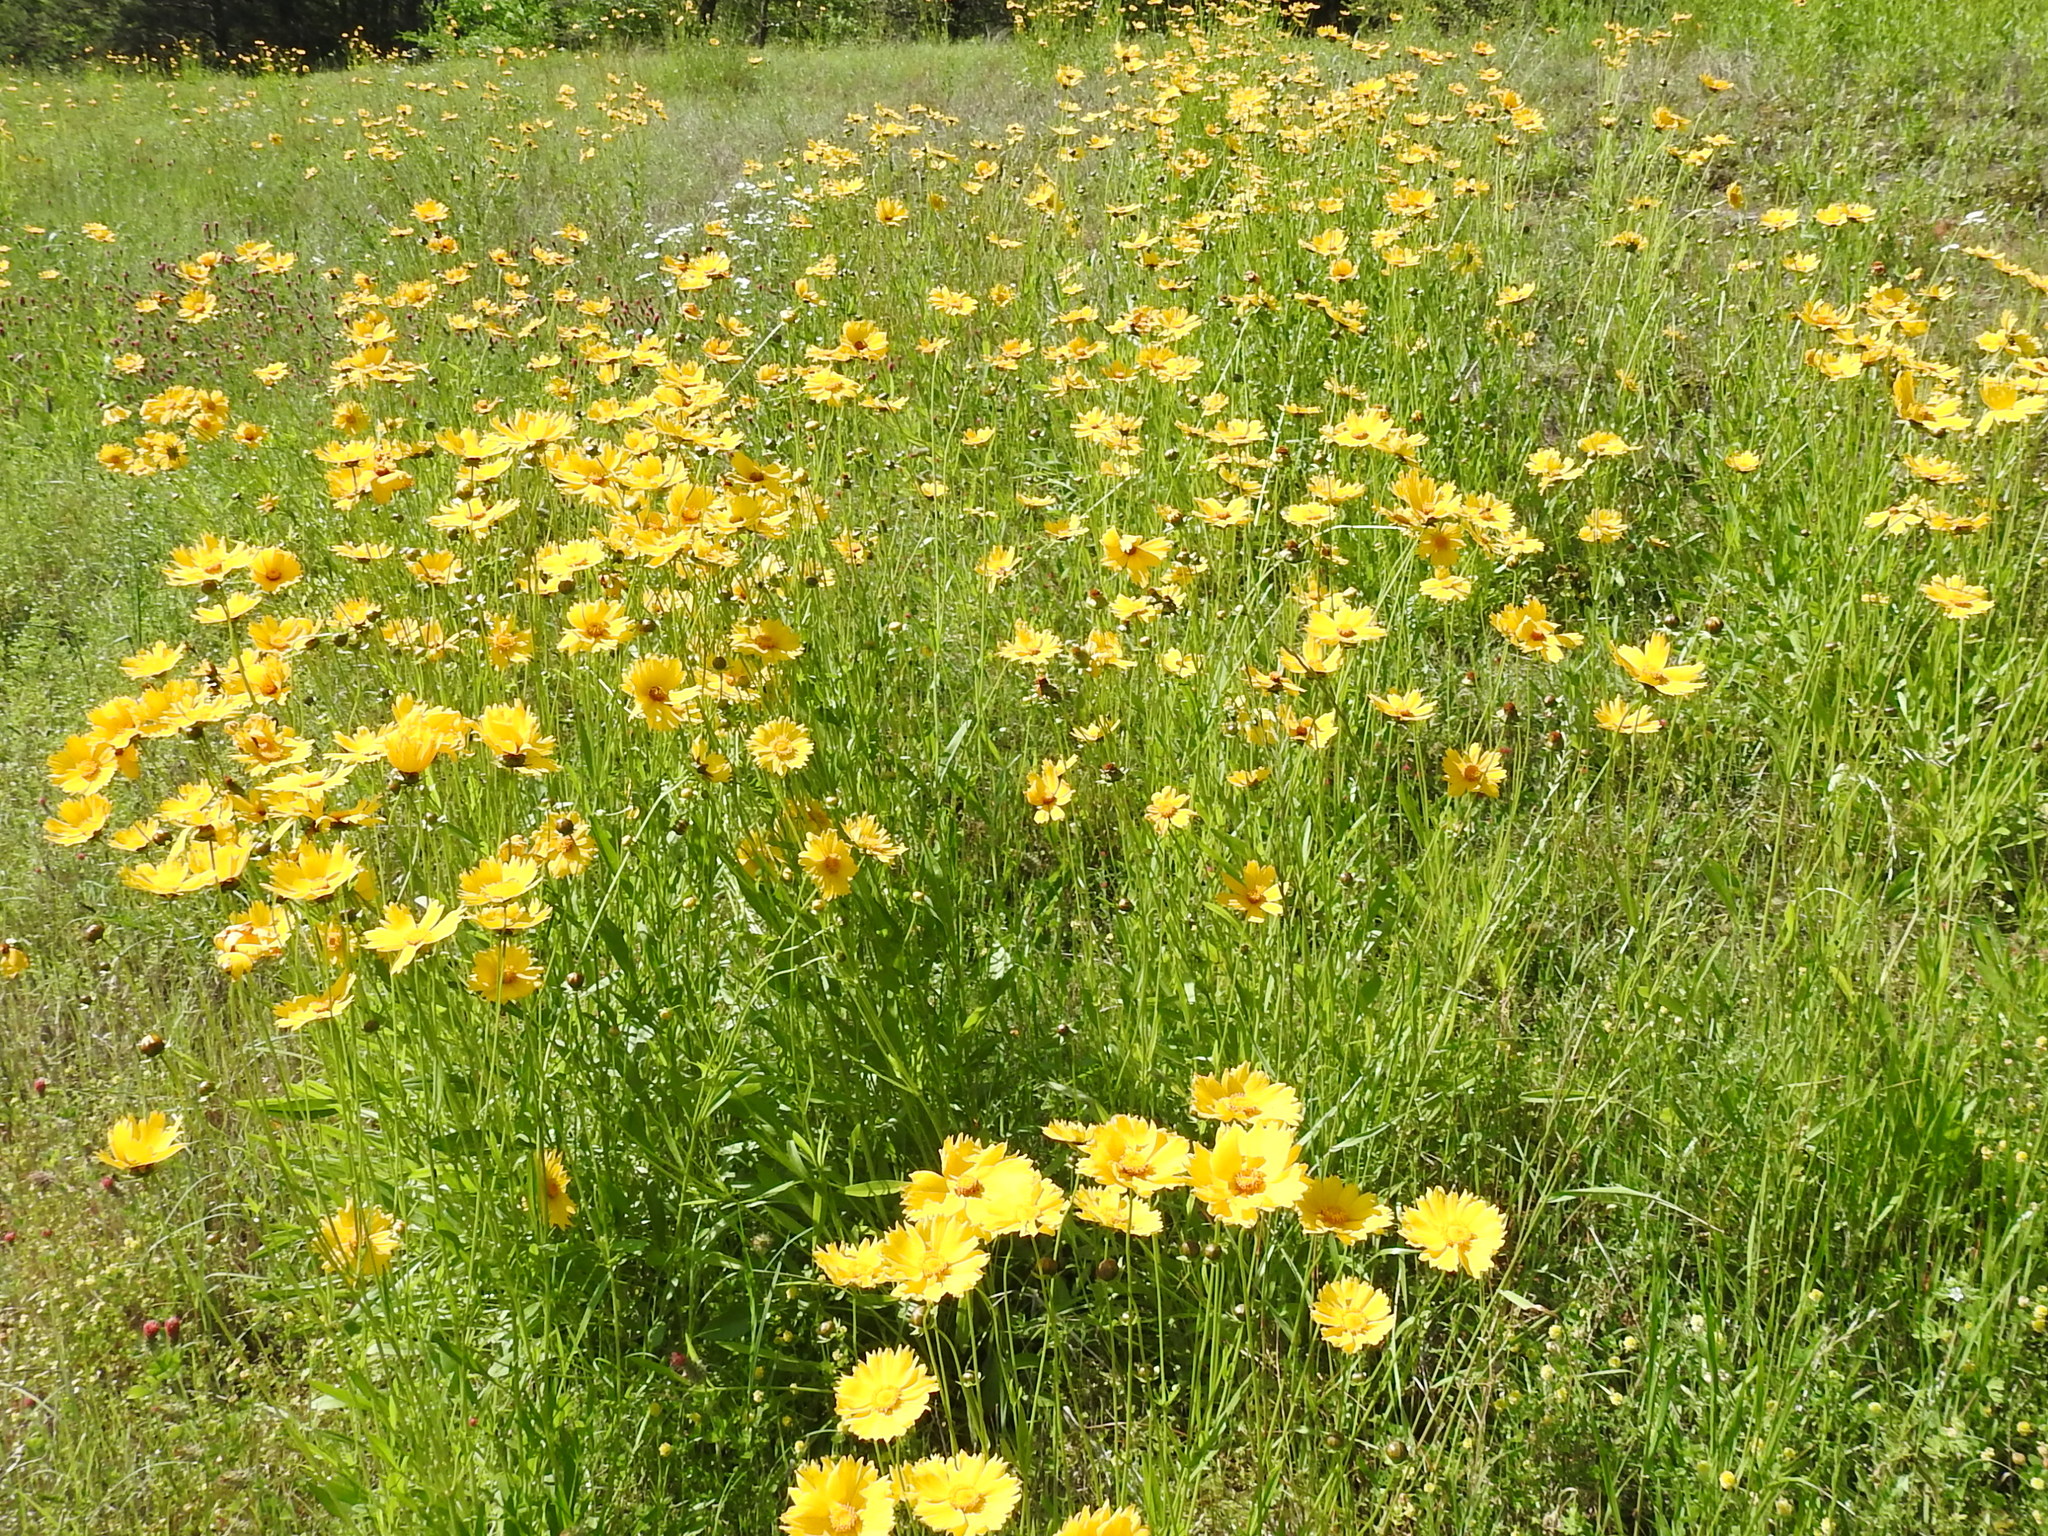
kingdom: Plantae
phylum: Tracheophyta
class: Magnoliopsida
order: Asterales
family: Asteraceae
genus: Coreopsis
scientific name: Coreopsis lanceolata
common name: Garden coreopsis
